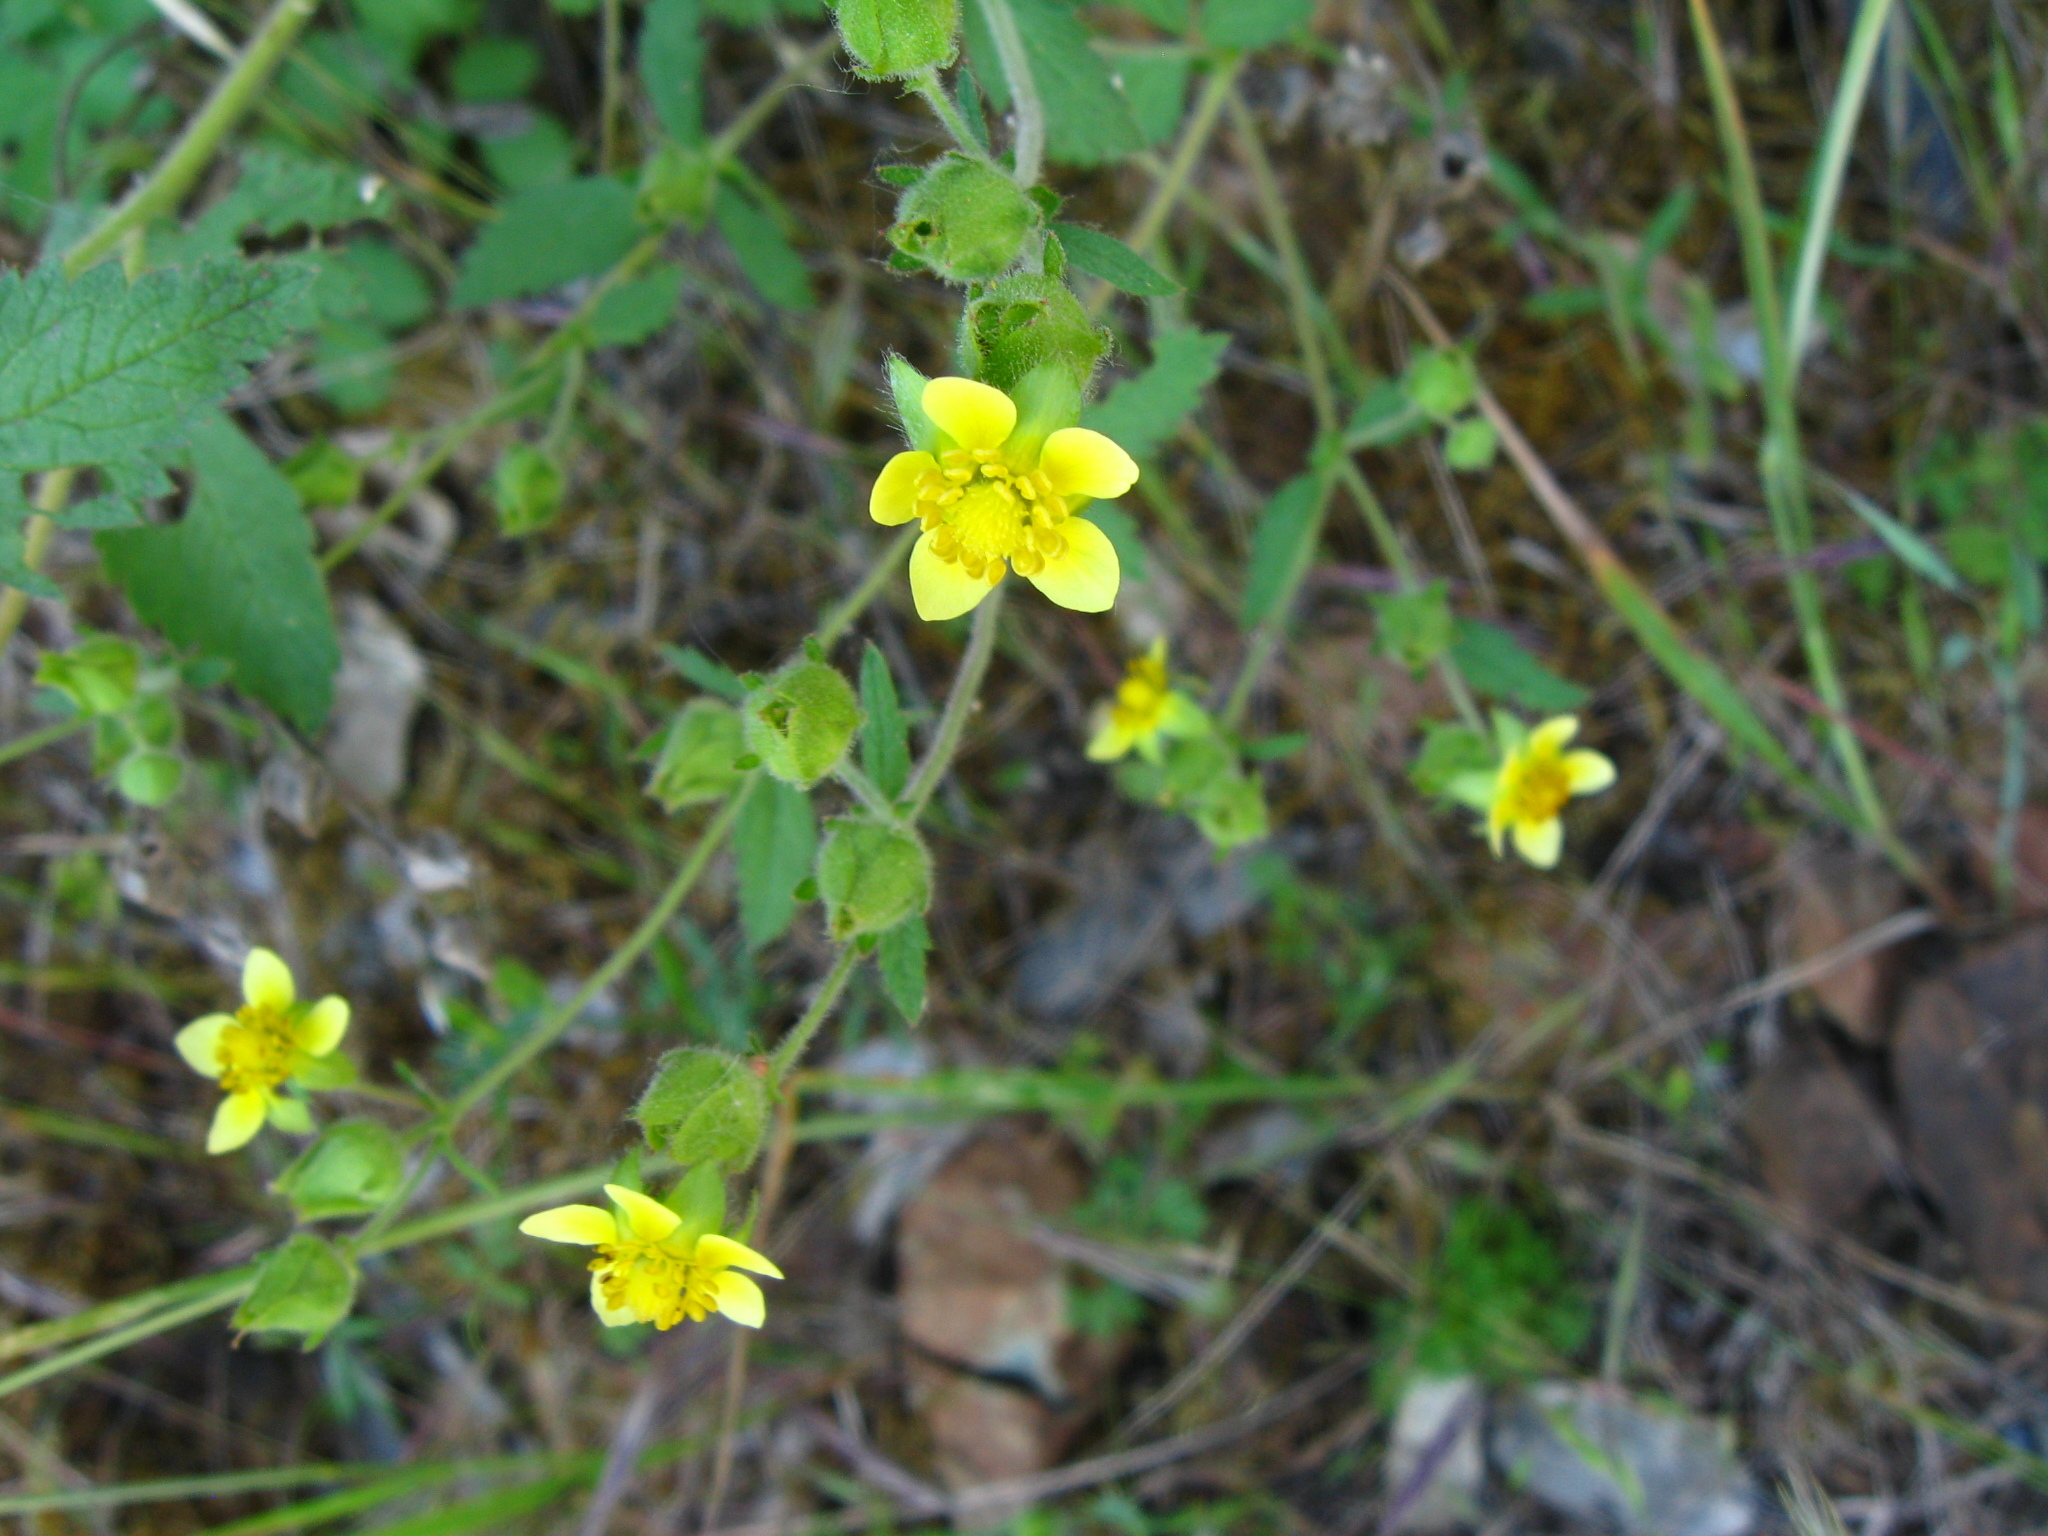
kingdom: Plantae
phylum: Tracheophyta
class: Magnoliopsida
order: Rosales
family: Rosaceae
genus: Drymocallis
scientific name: Drymocallis glandulosa
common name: Sticky cinquefoil
